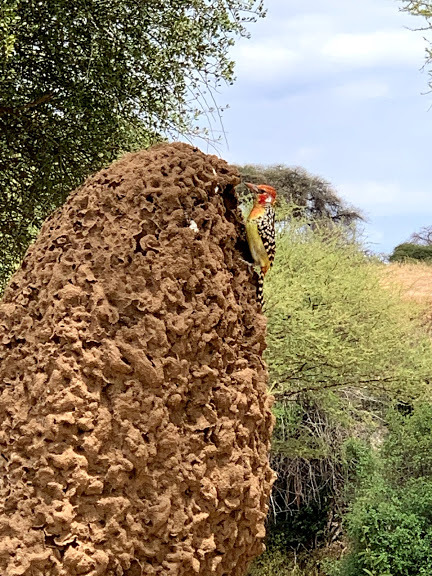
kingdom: Animalia
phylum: Chordata
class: Aves
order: Piciformes
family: Lybiidae
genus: Trachyphonus
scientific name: Trachyphonus erythrocephalus
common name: Red-and-yellow barbet
